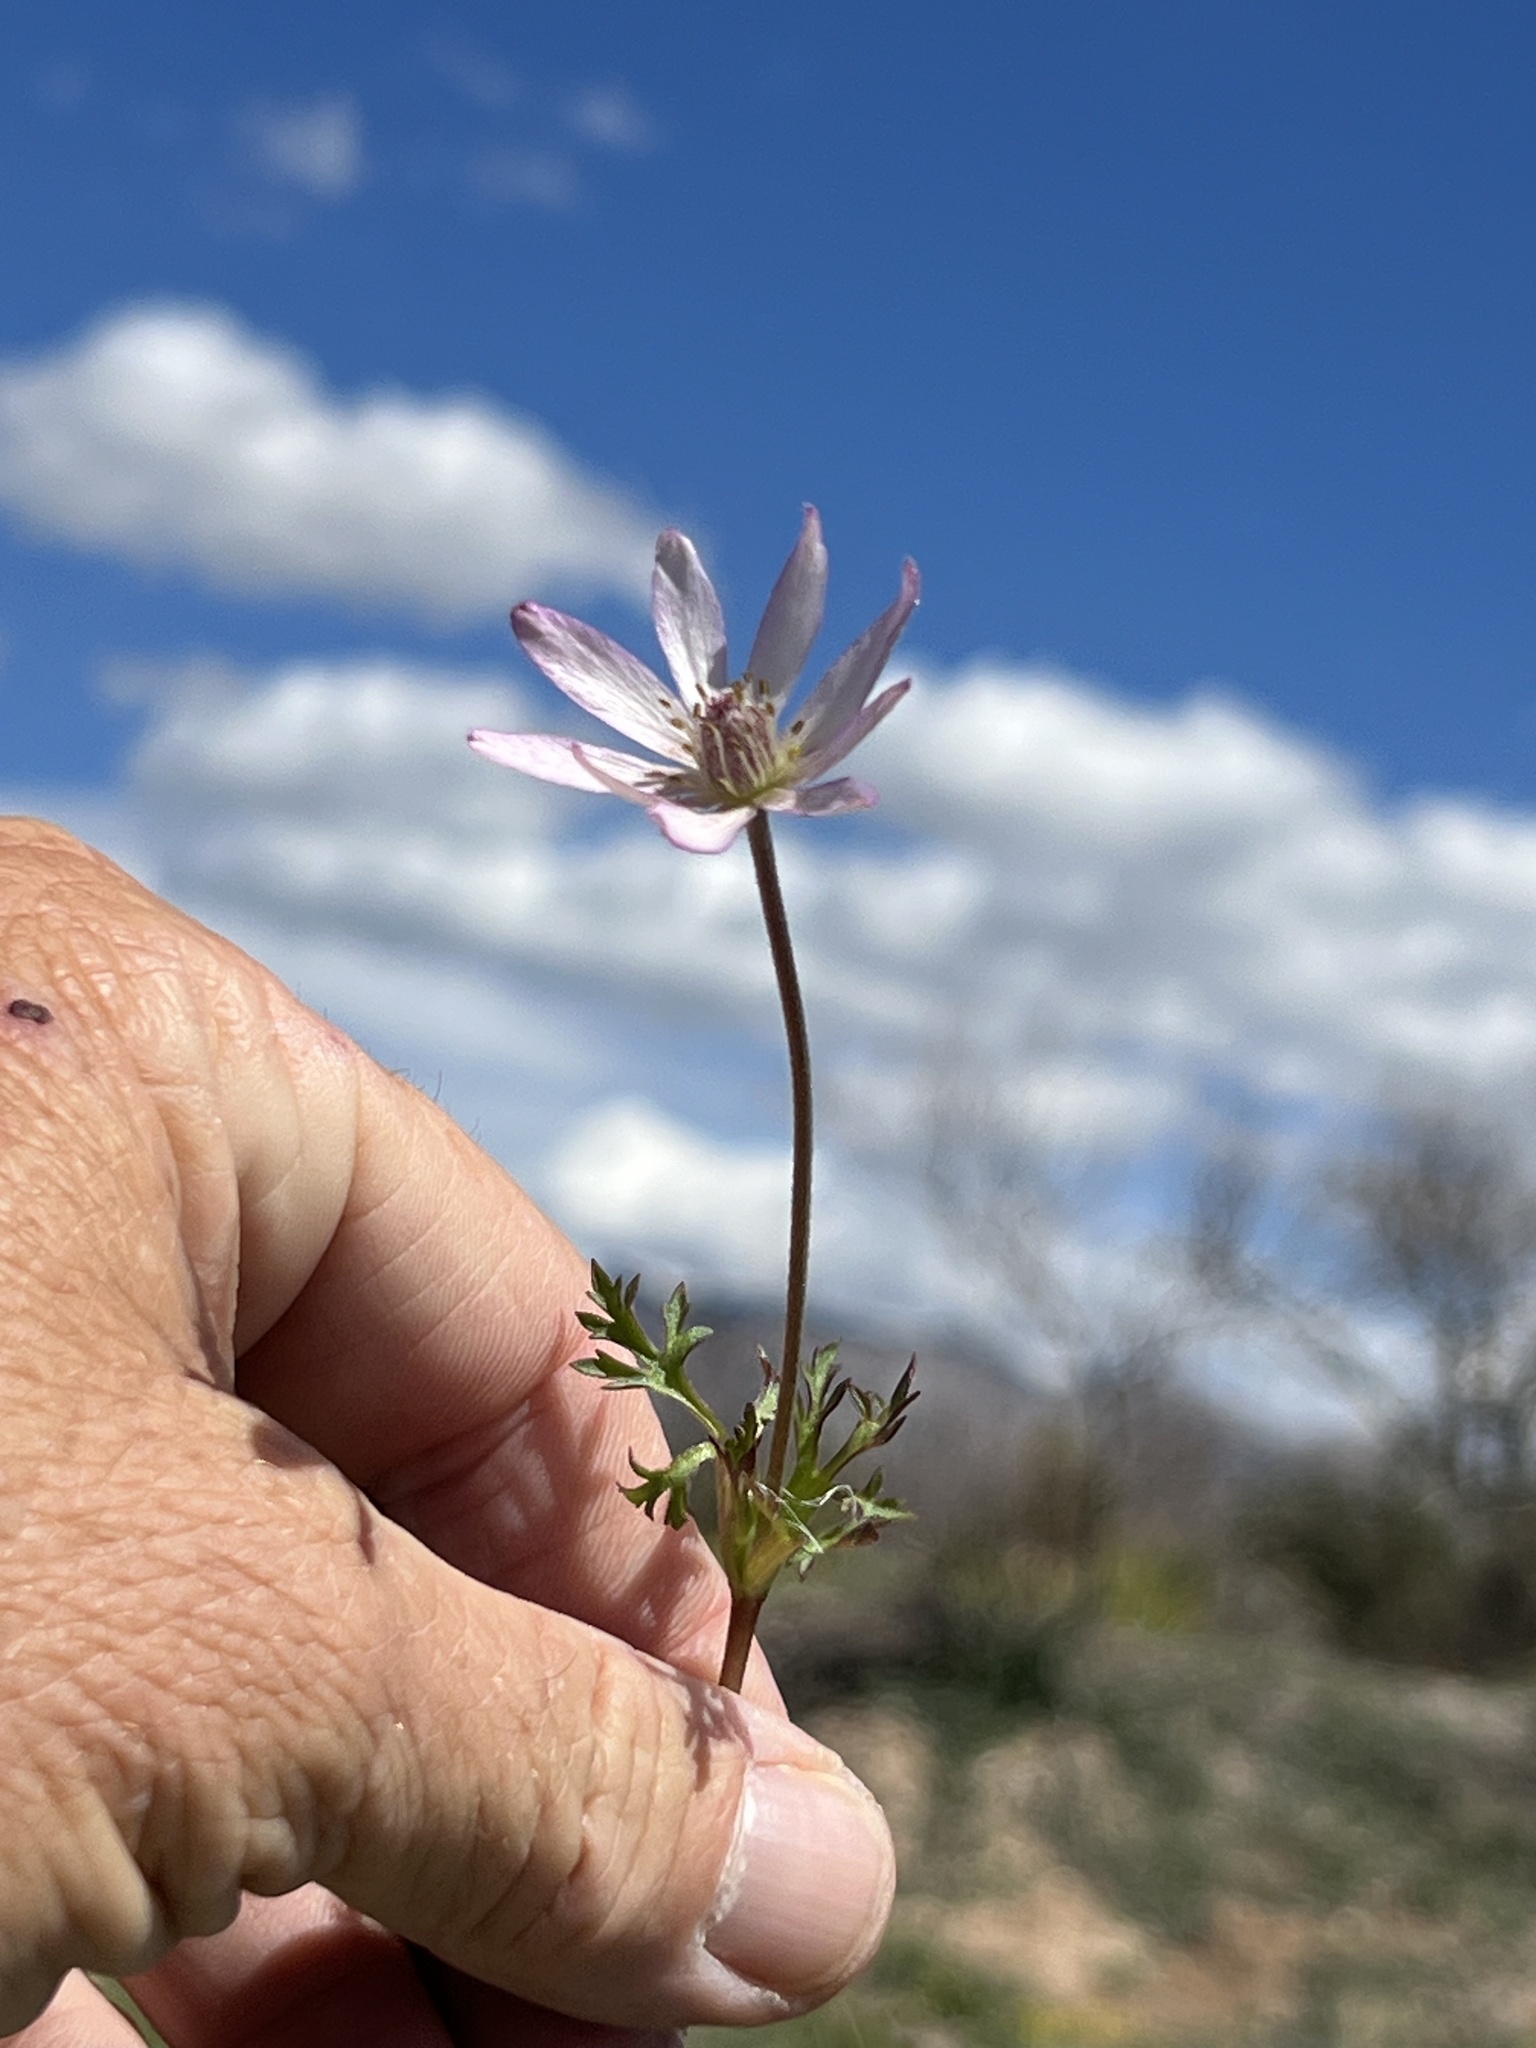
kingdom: Plantae
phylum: Tracheophyta
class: Magnoliopsida
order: Ranunculales
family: Ranunculaceae
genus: Anemone
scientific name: Anemone tuberosa
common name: Desert anemone
